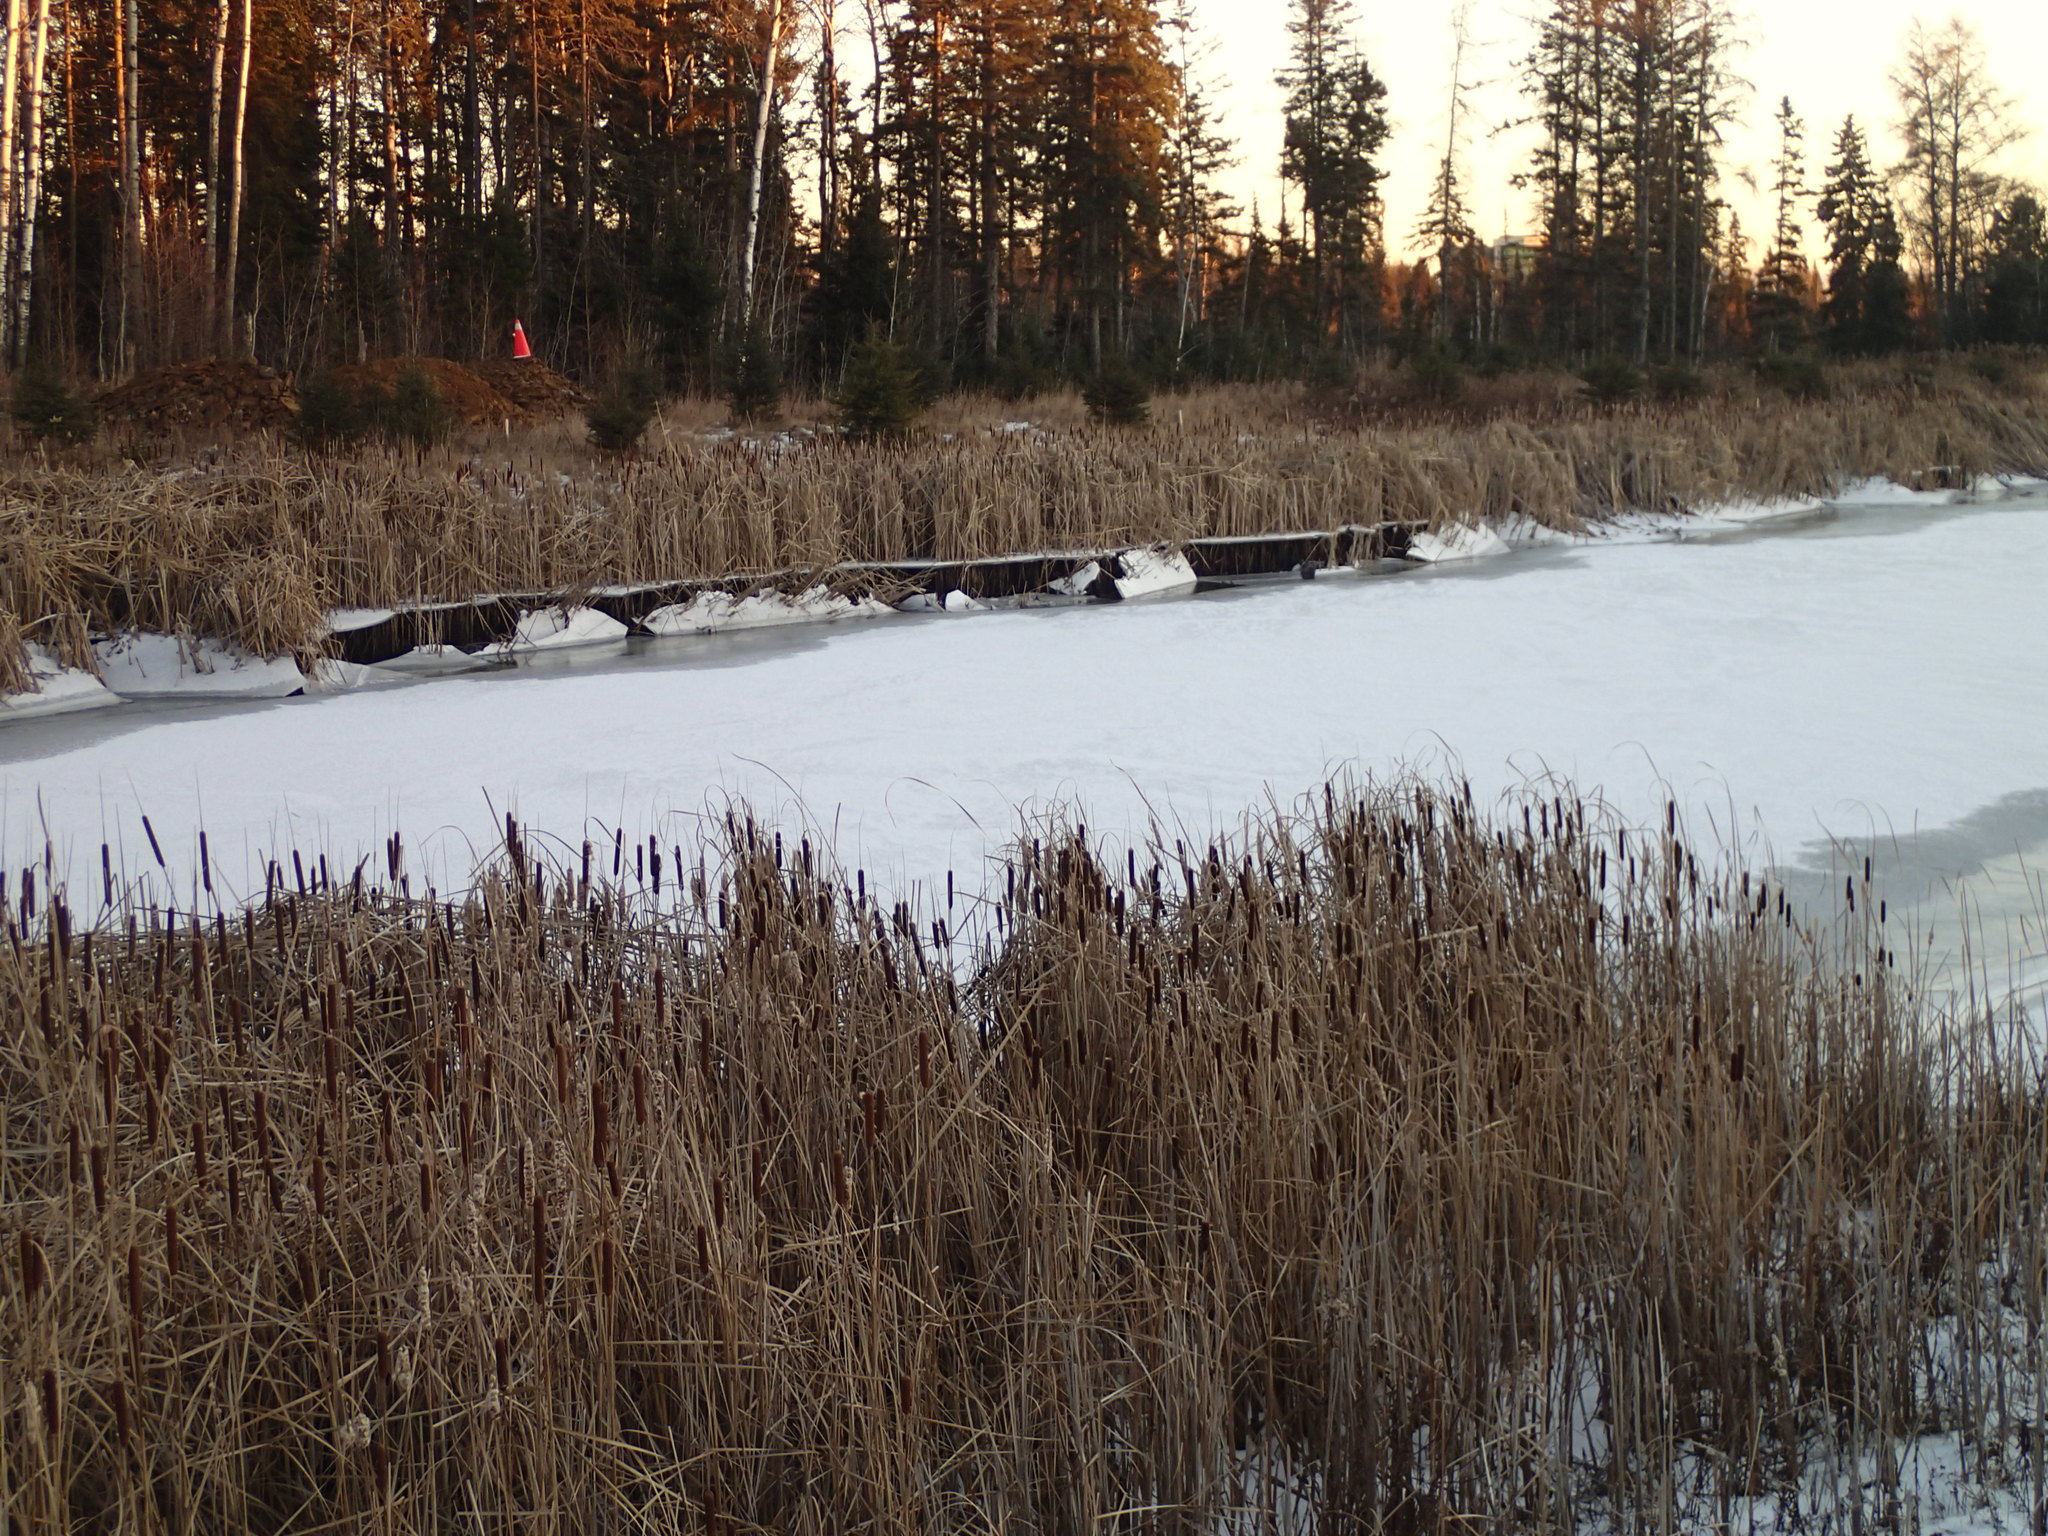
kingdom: Plantae
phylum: Tracheophyta
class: Liliopsida
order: Poales
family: Typhaceae
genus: Typha
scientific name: Typha angustifolia
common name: Lesser bulrush
